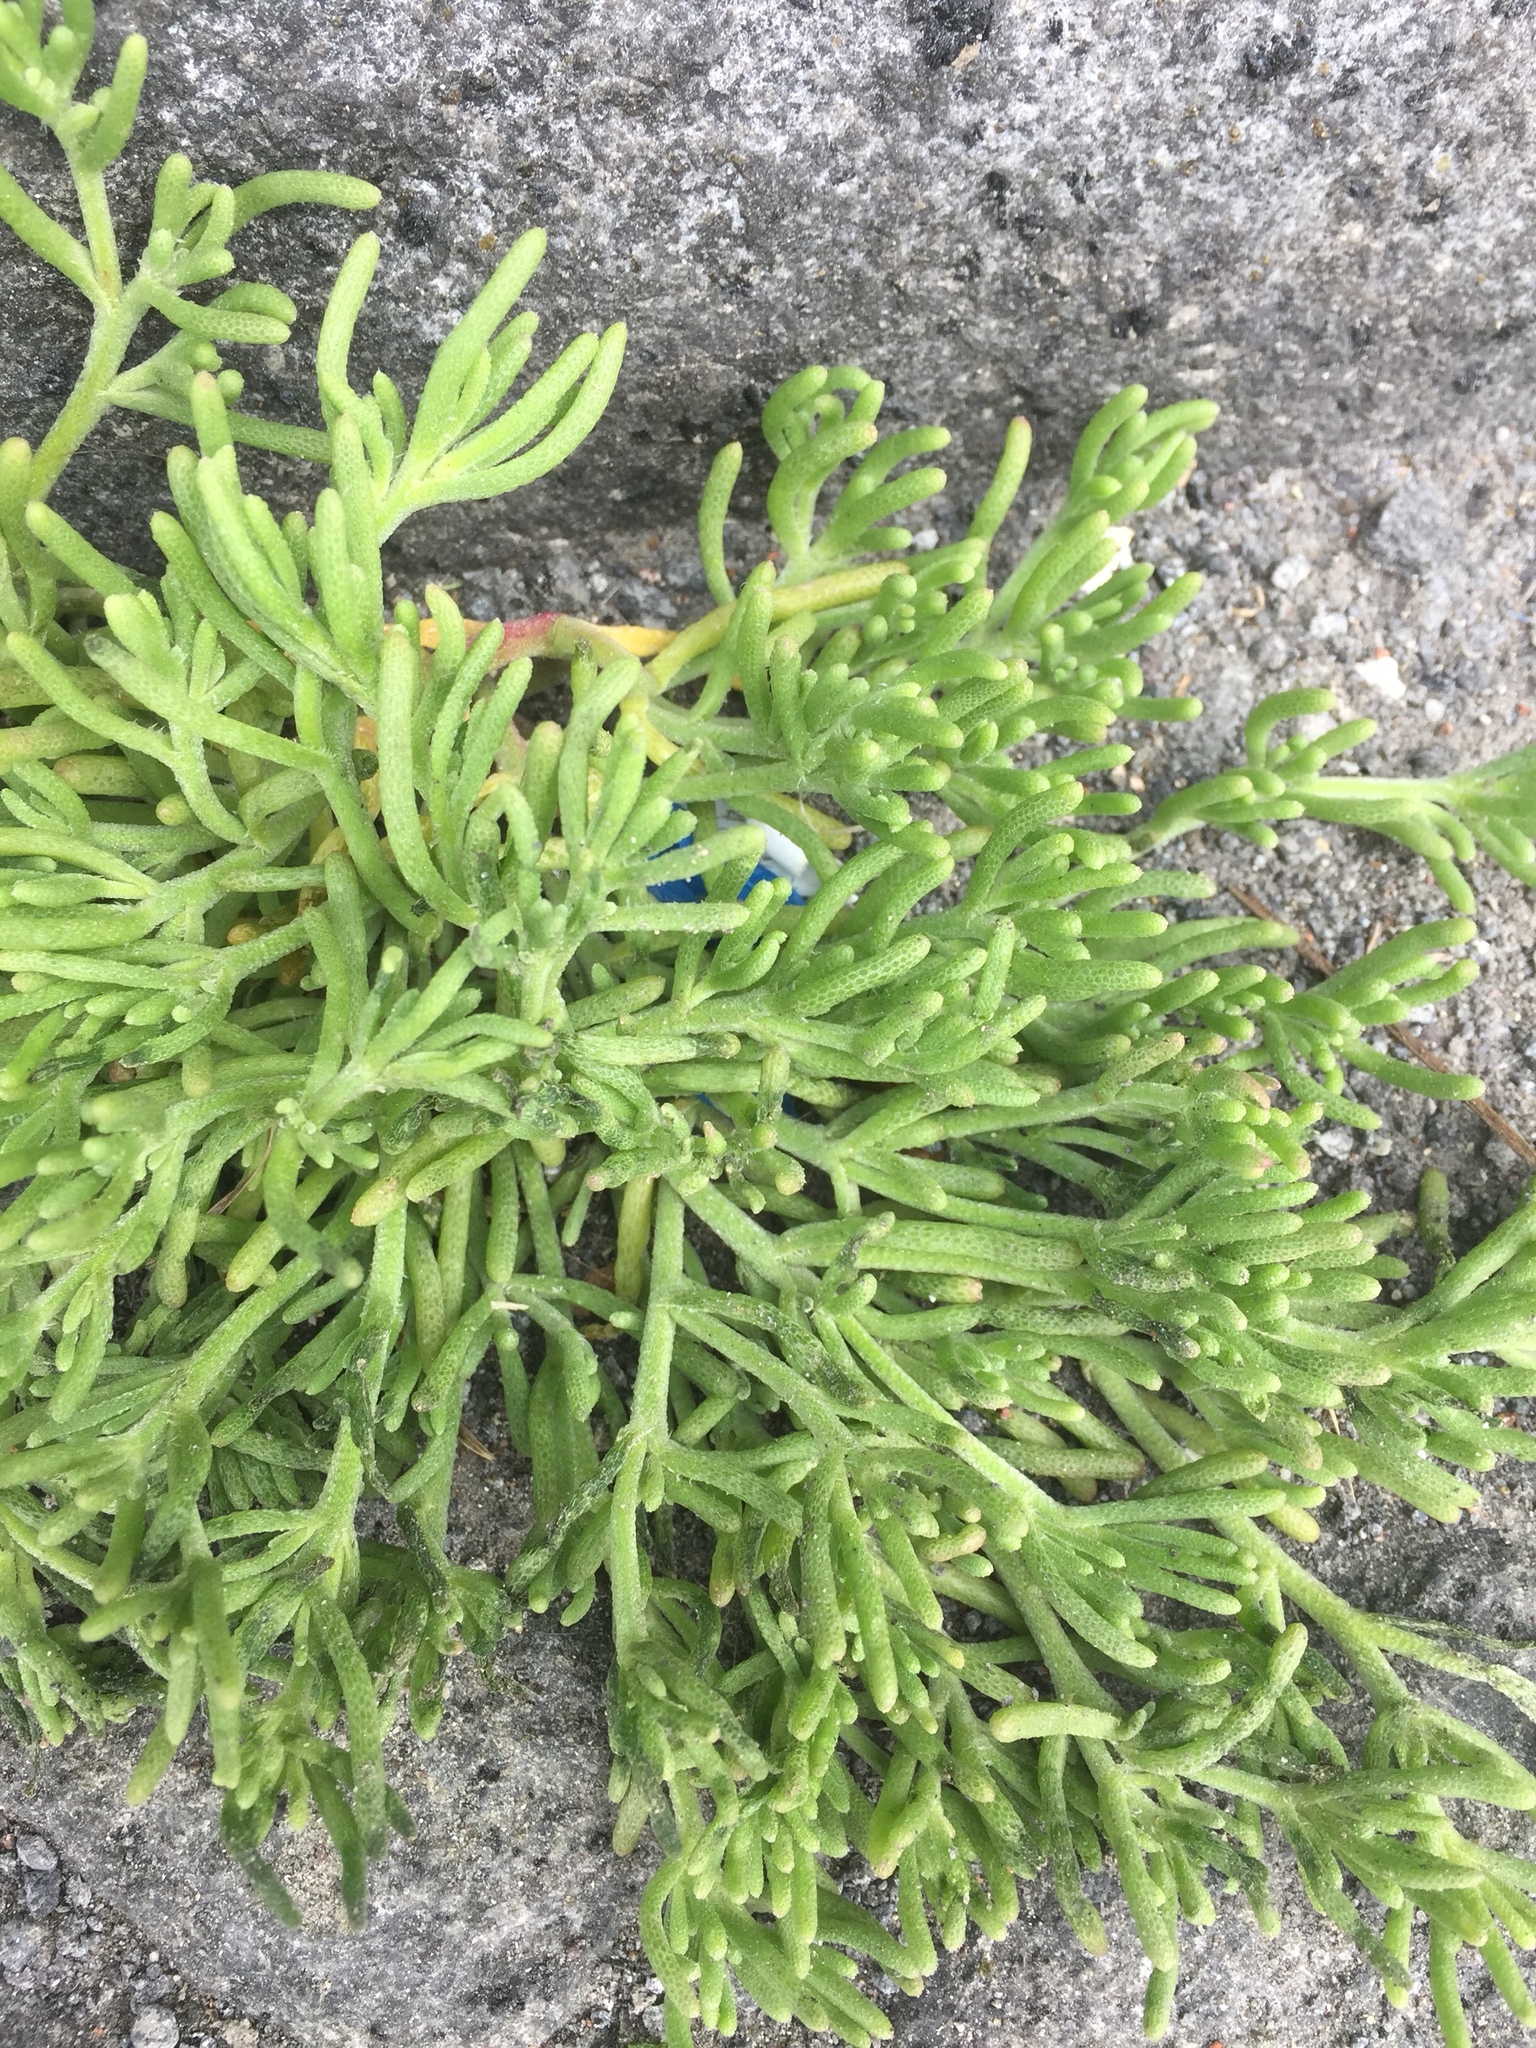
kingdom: Plantae
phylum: Tracheophyta
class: Magnoliopsida
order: Caryophyllales
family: Aizoaceae
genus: Mesembryanthemum
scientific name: Mesembryanthemum nodiflorum
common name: Slenderleaf iceplant
